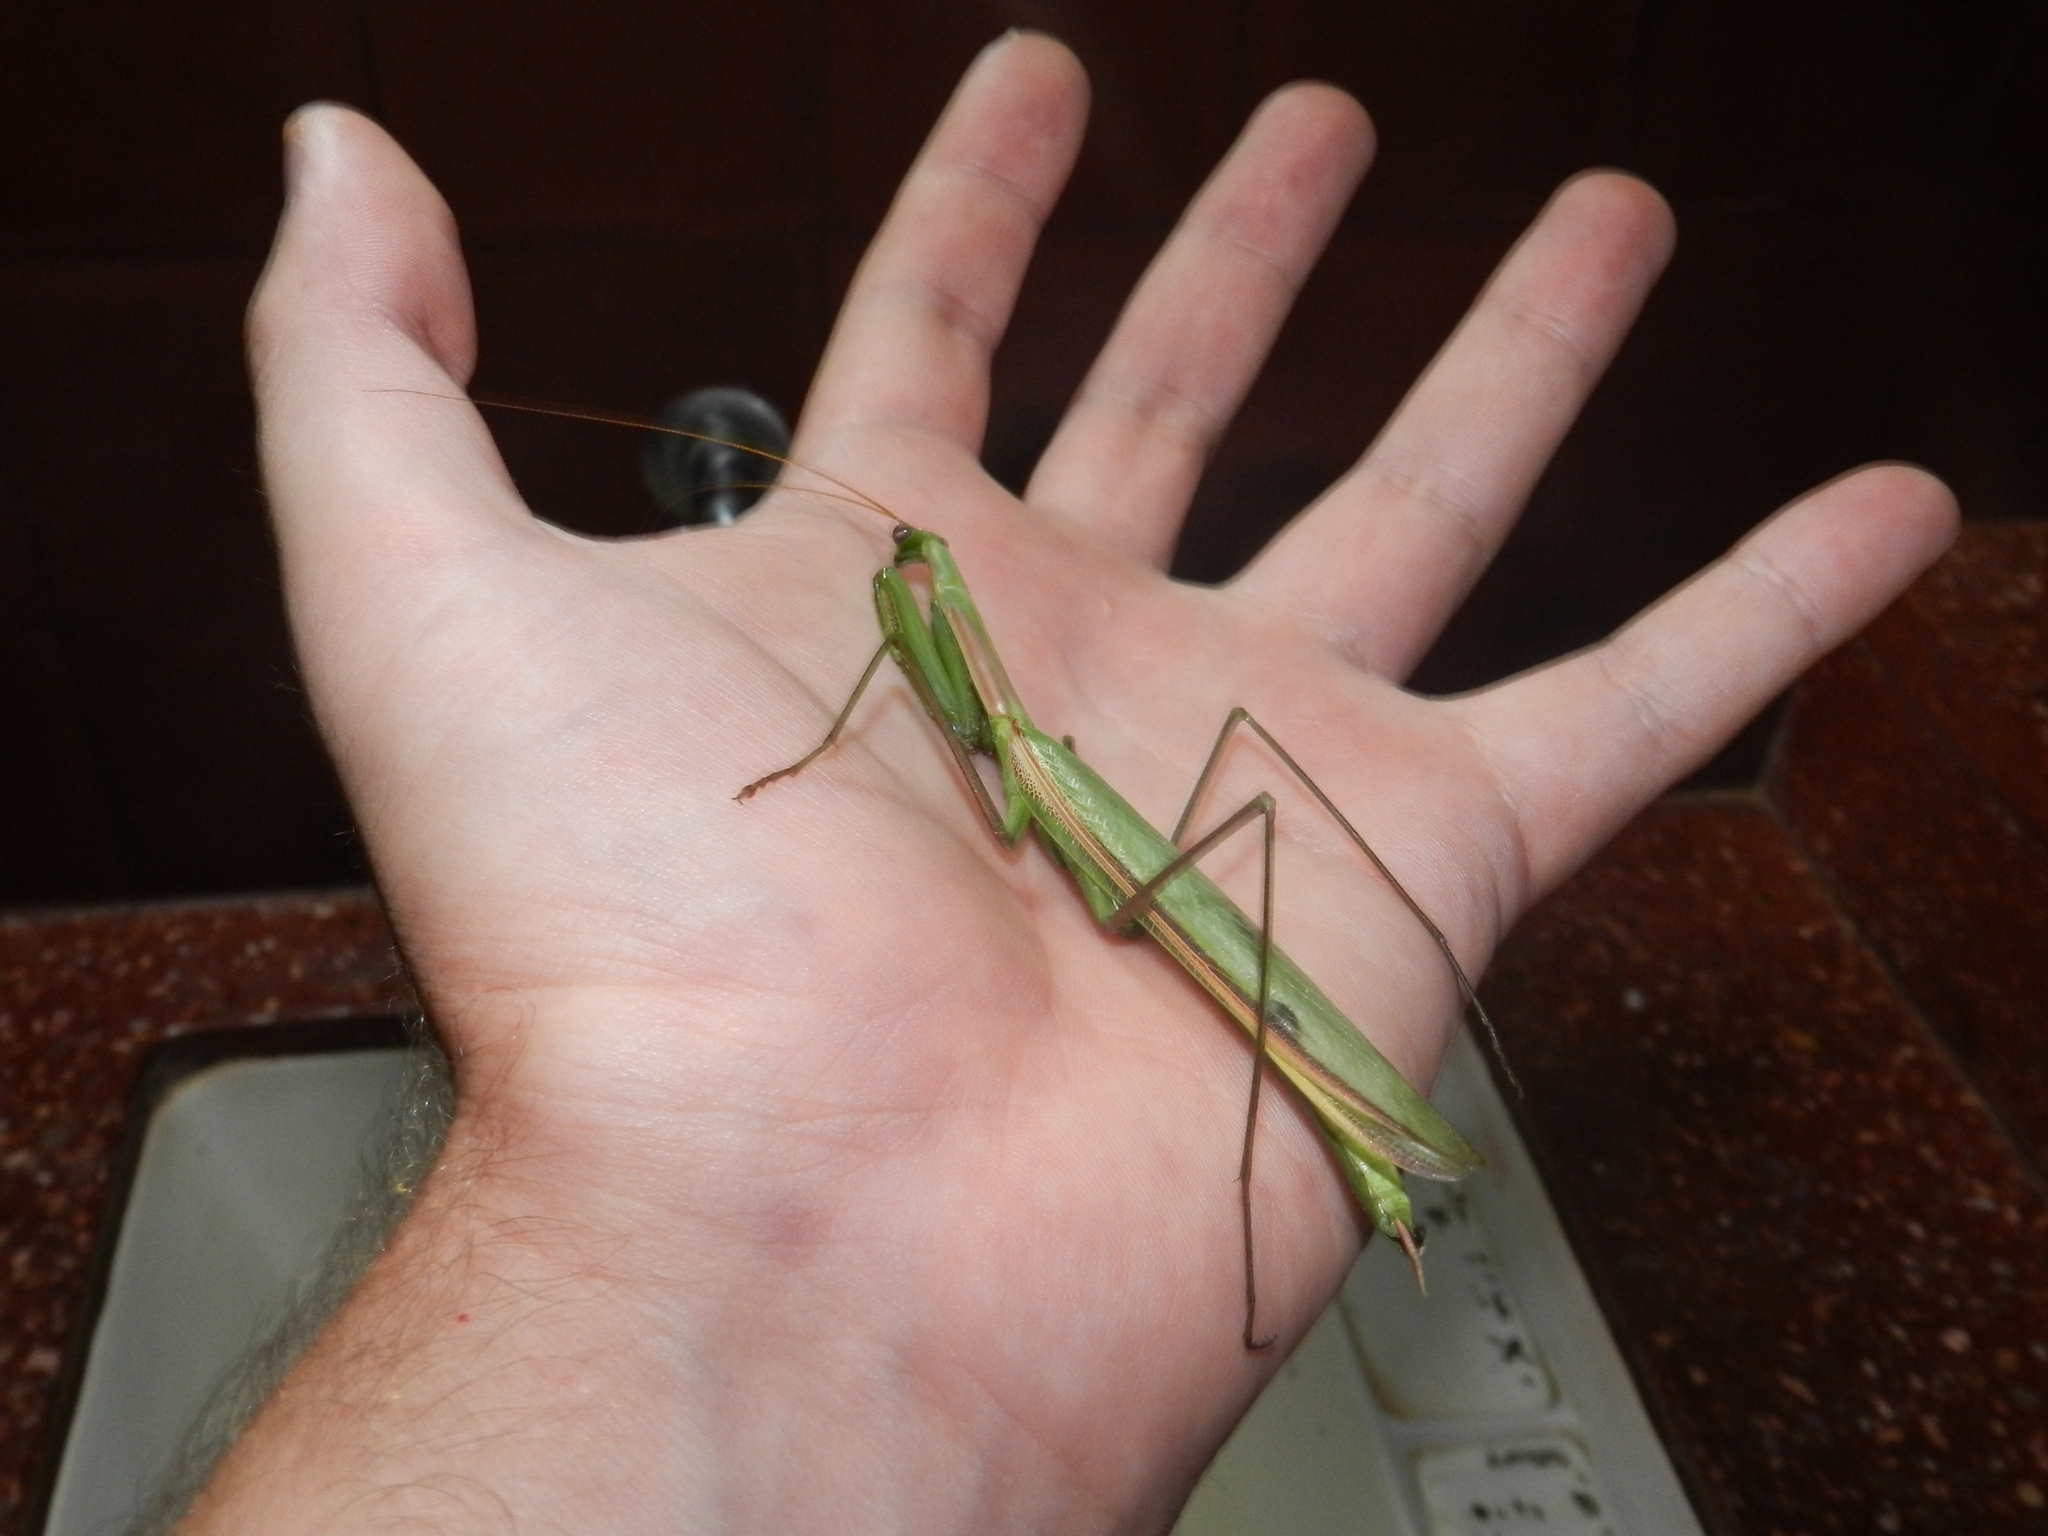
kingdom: Animalia
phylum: Arthropoda
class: Insecta
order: Mantodea
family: Coptopterygidae
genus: Coptopteryx
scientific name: Coptopteryx argentina
